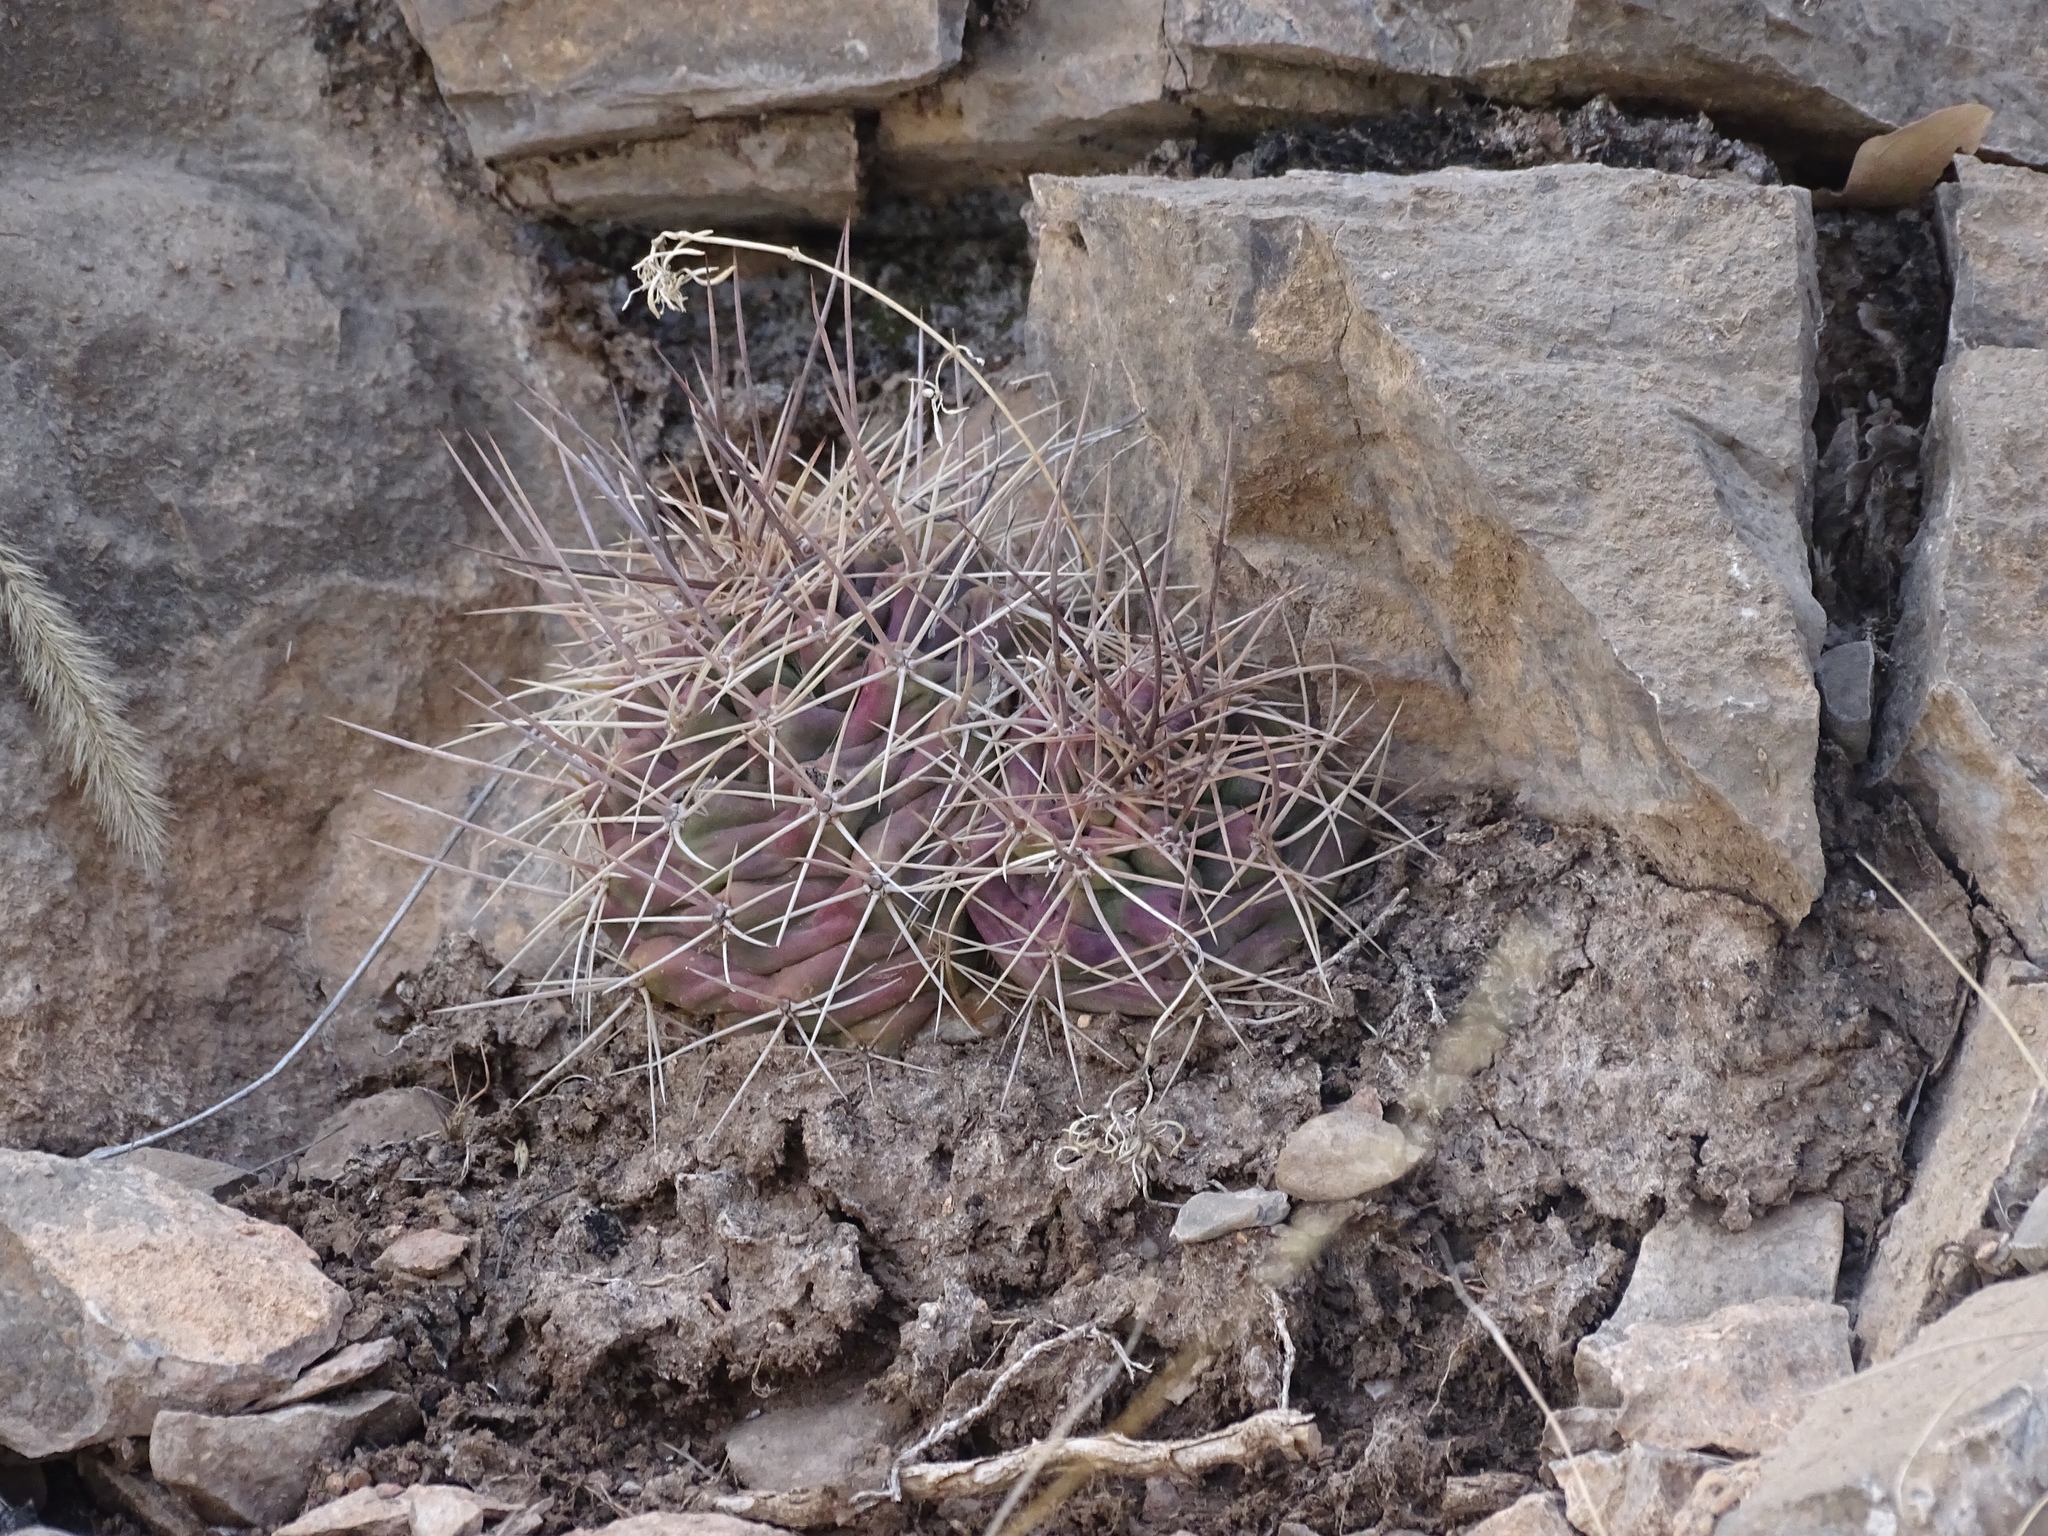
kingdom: Plantae
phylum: Tracheophyta
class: Magnoliopsida
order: Caryophyllales
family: Cactaceae
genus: Echinocereus
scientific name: Echinocereus coccineus
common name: Scarlet hedgehog cactus
